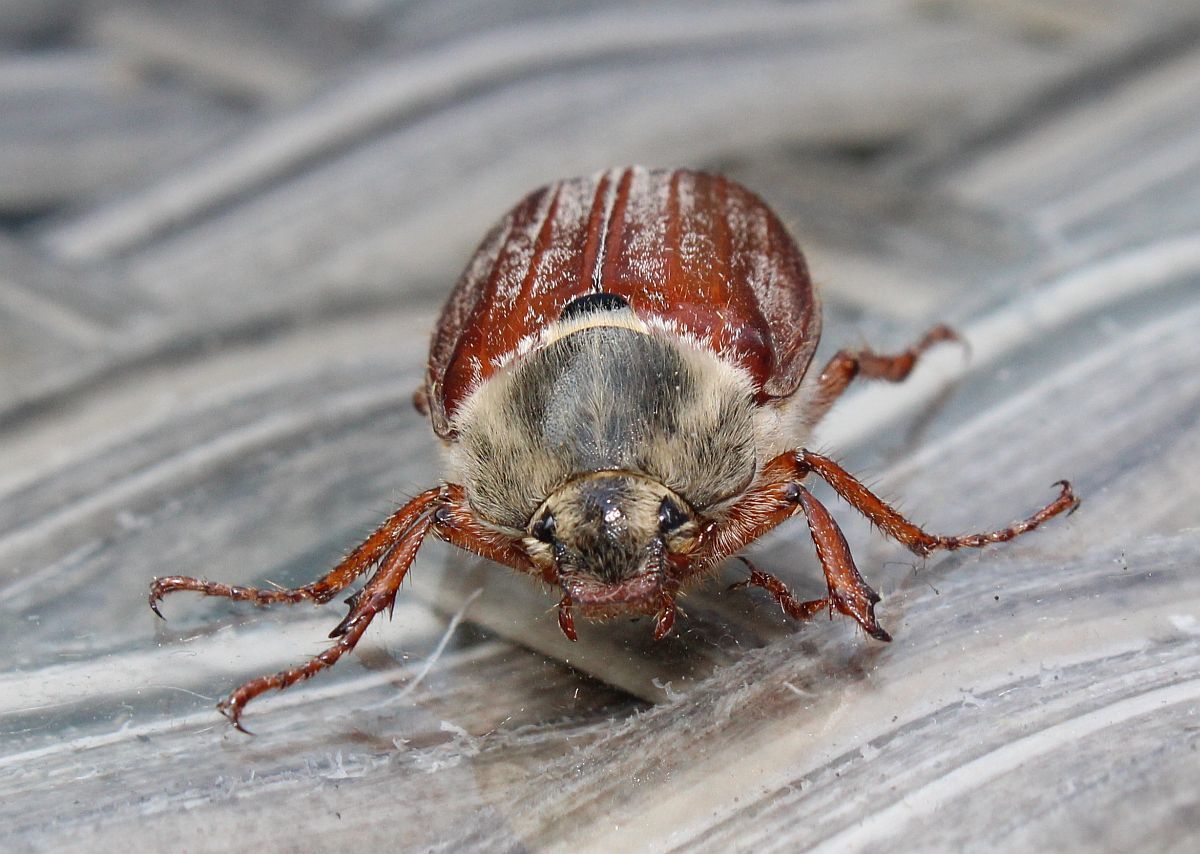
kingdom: Animalia
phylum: Arthropoda
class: Insecta
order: Coleoptera
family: Scarabaeidae
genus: Melolontha
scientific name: Melolontha melolontha
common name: Cockchafer maybeetle
